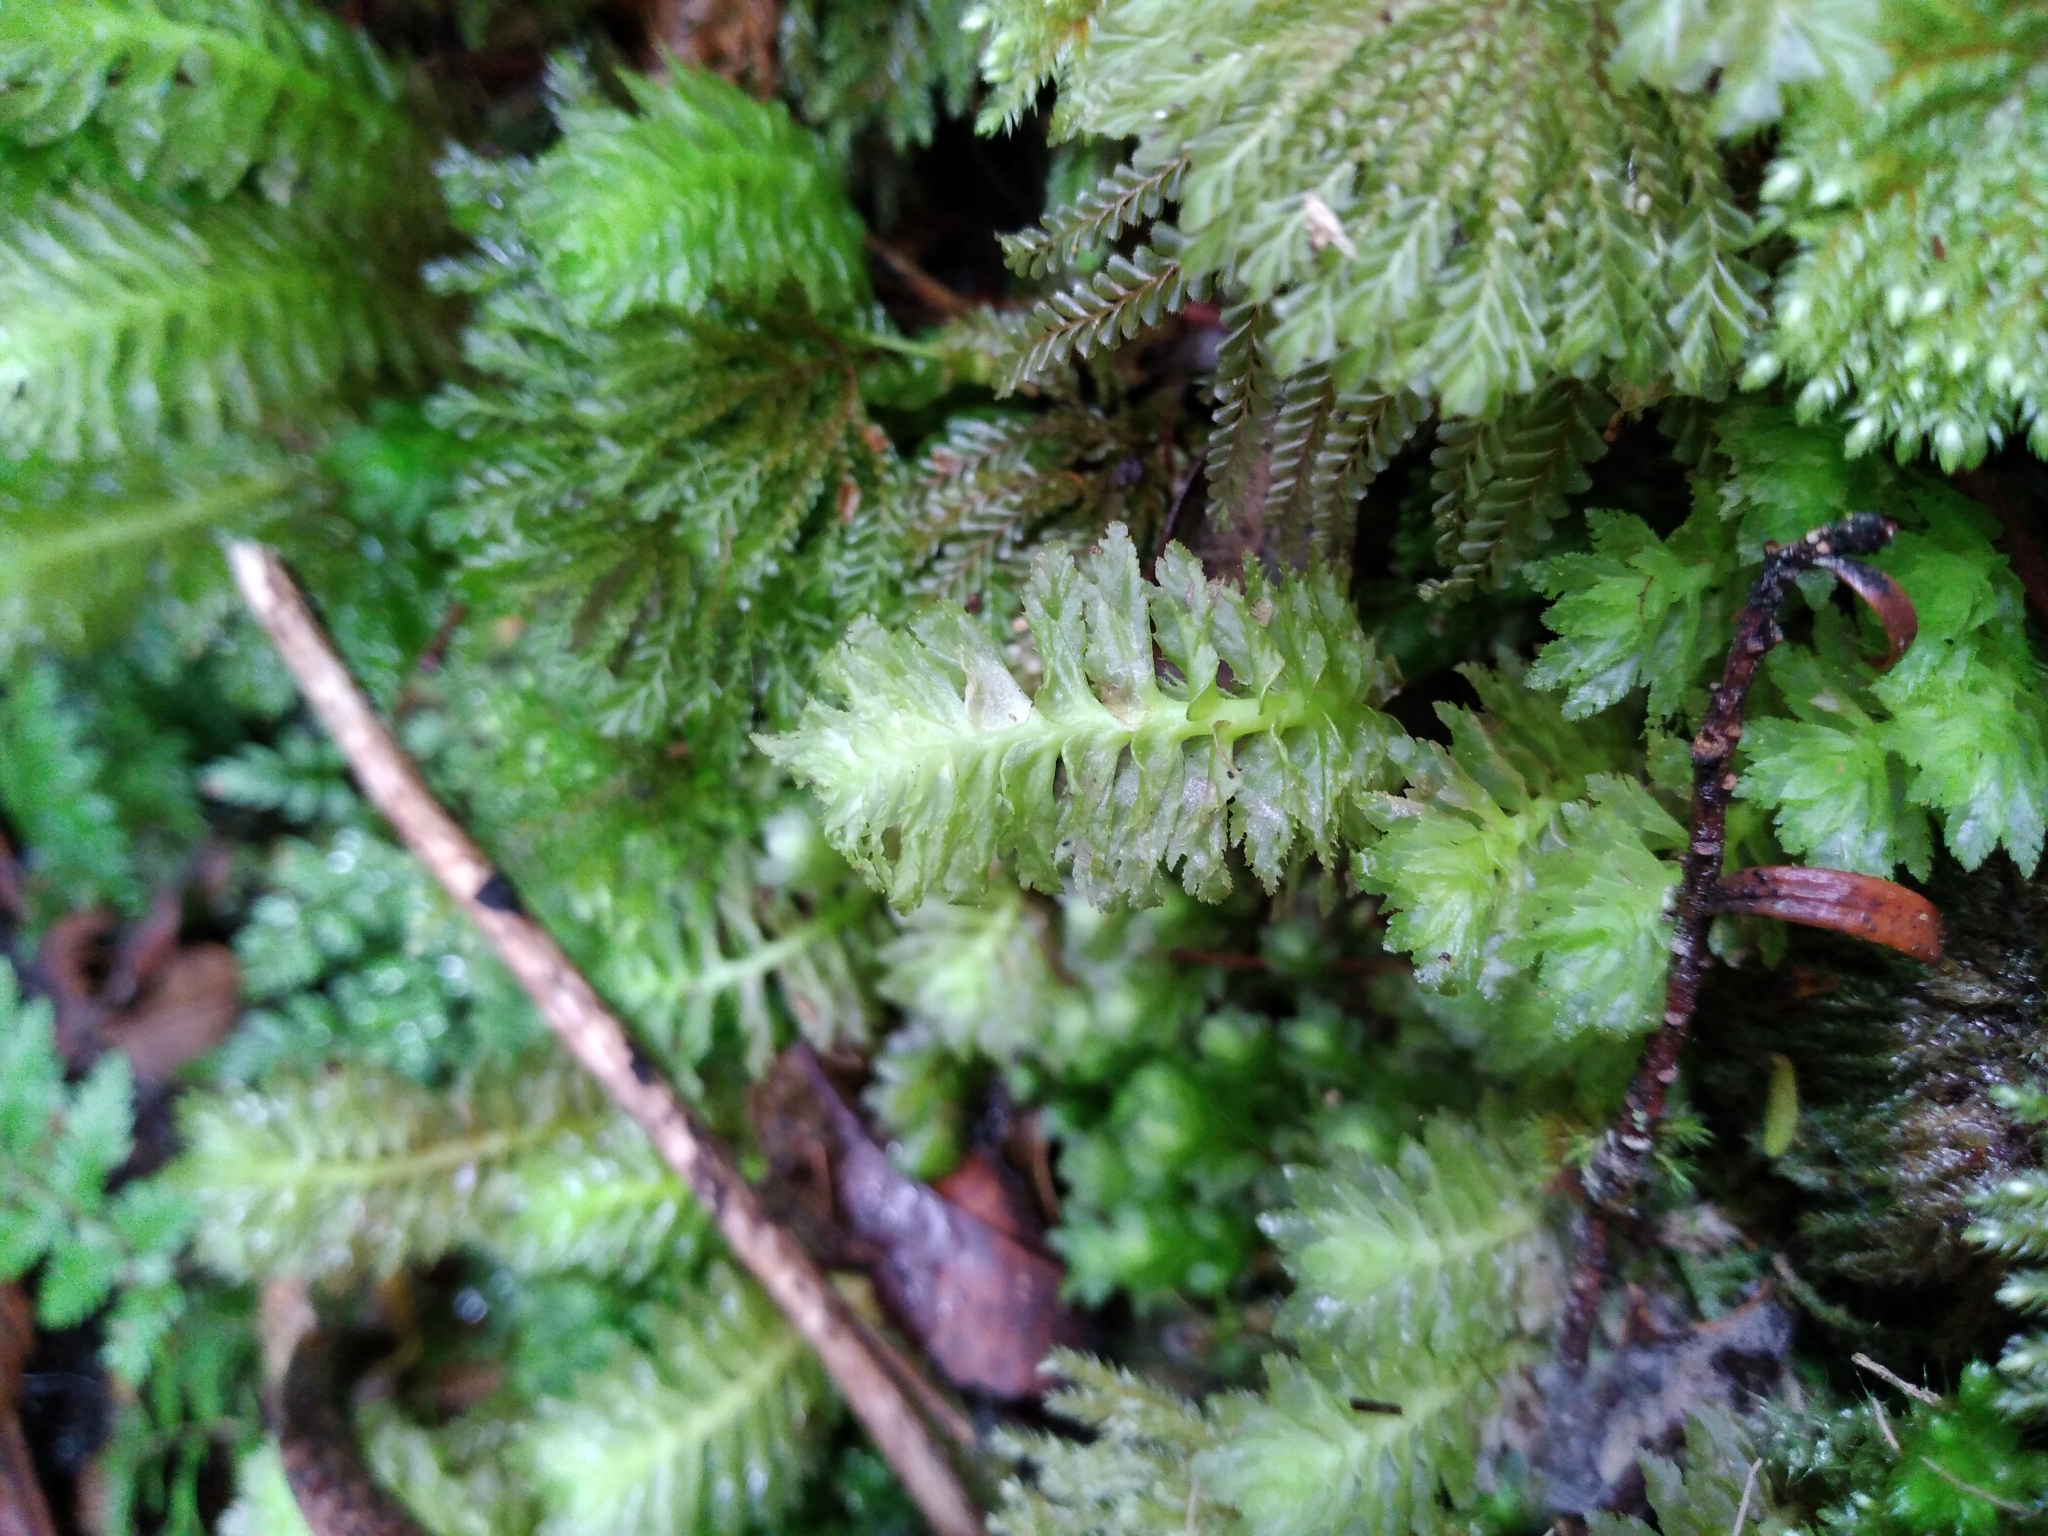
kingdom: Plantae
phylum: Marchantiophyta
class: Jungermanniopsida
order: Jungermanniales
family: Schistochilaceae
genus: Schistochila
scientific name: Schistochila appendiculata
